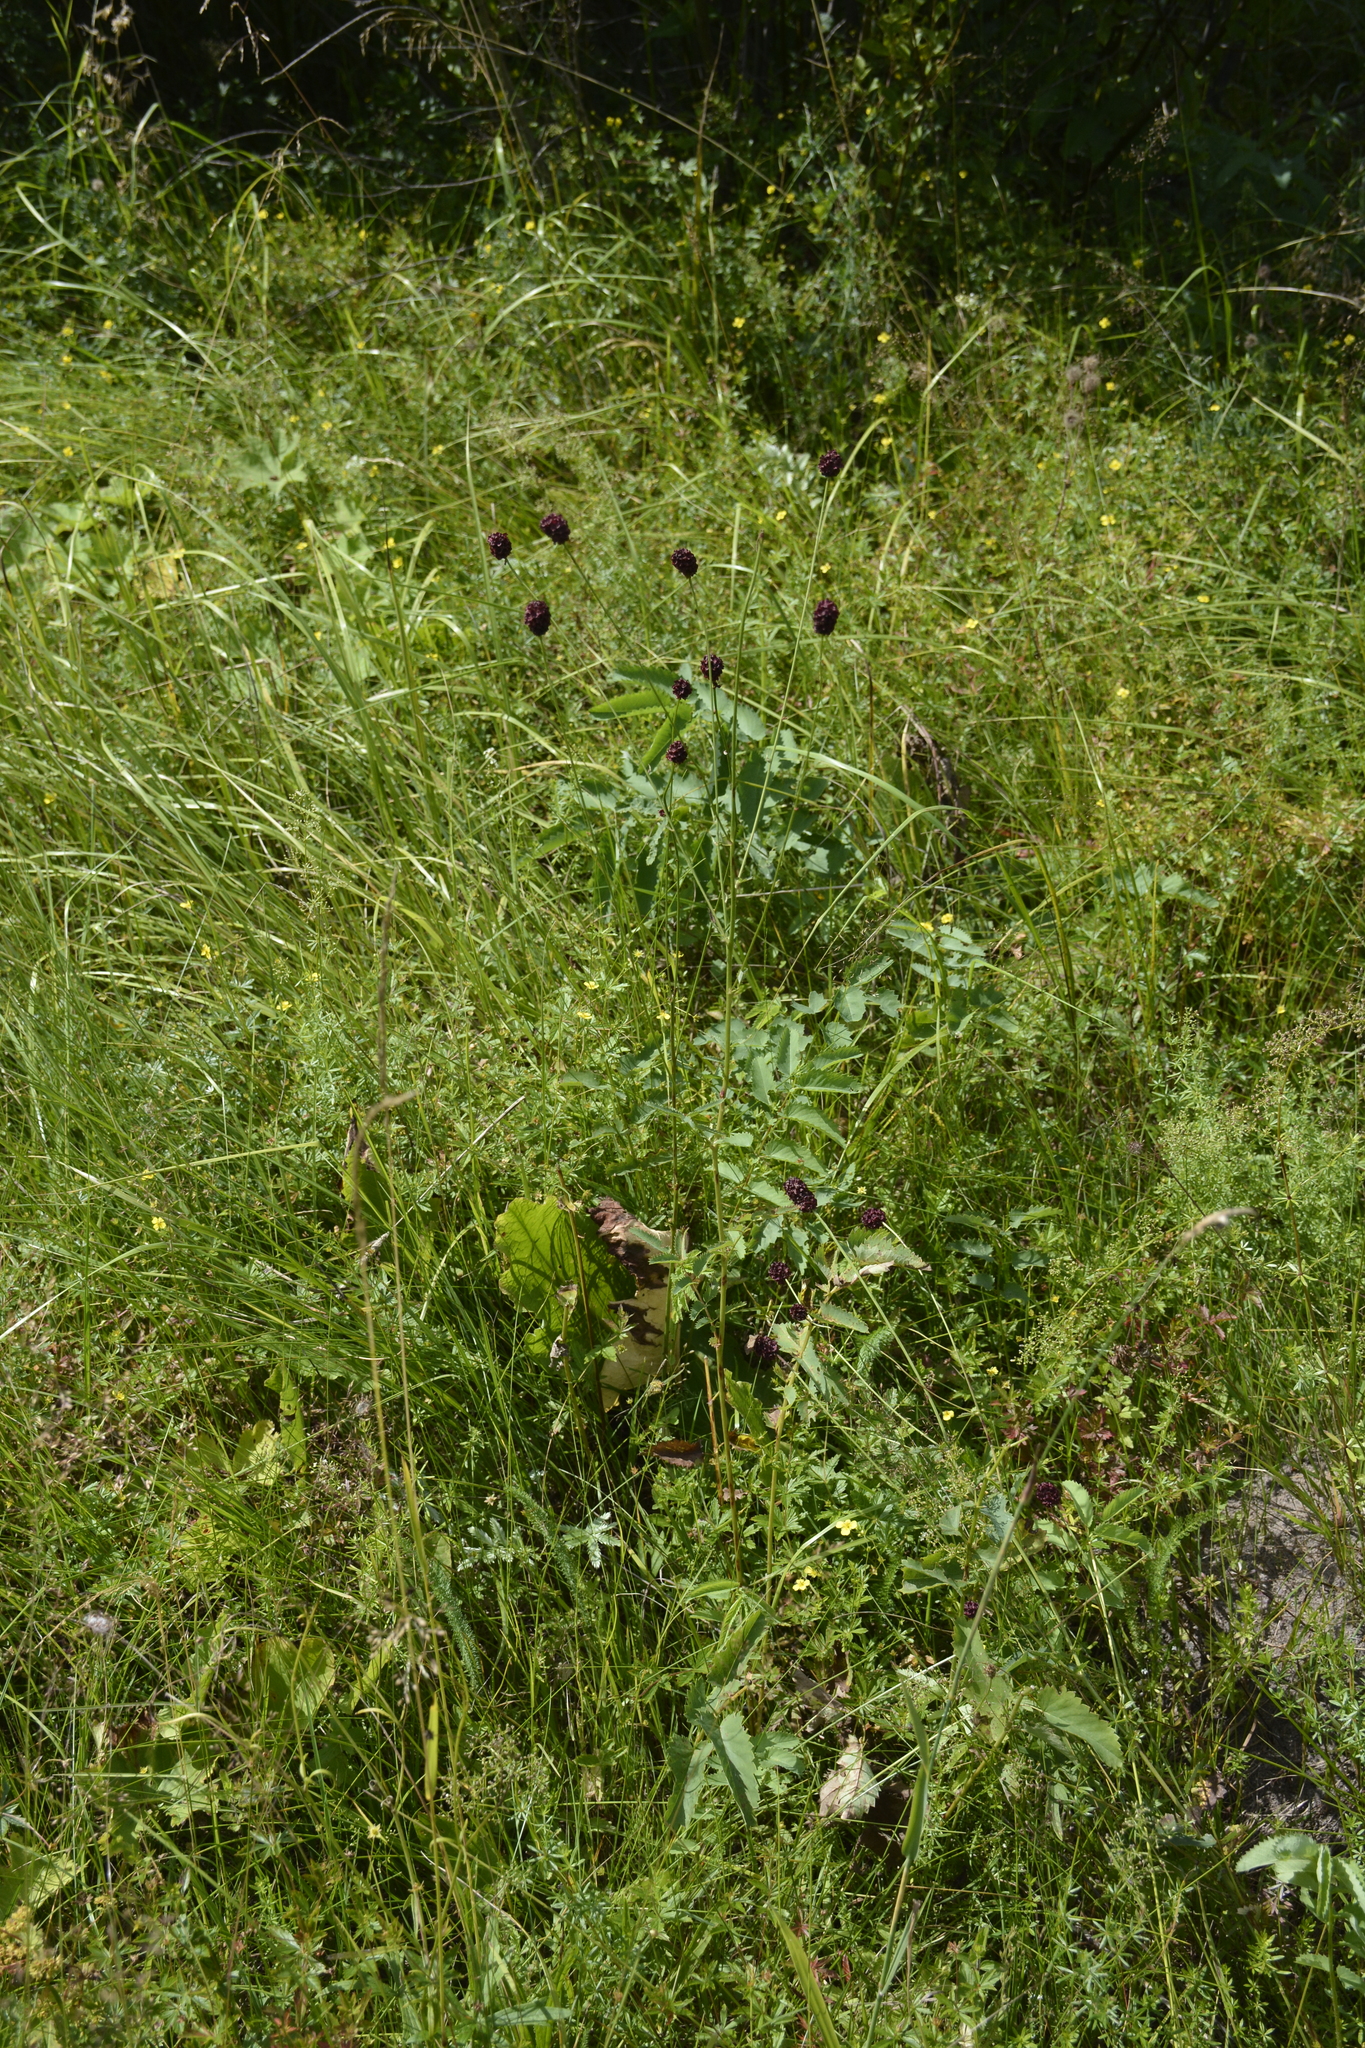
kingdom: Plantae
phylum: Tracheophyta
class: Magnoliopsida
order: Rosales
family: Rosaceae
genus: Sanguisorba
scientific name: Sanguisorba officinalis
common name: Great burnet
